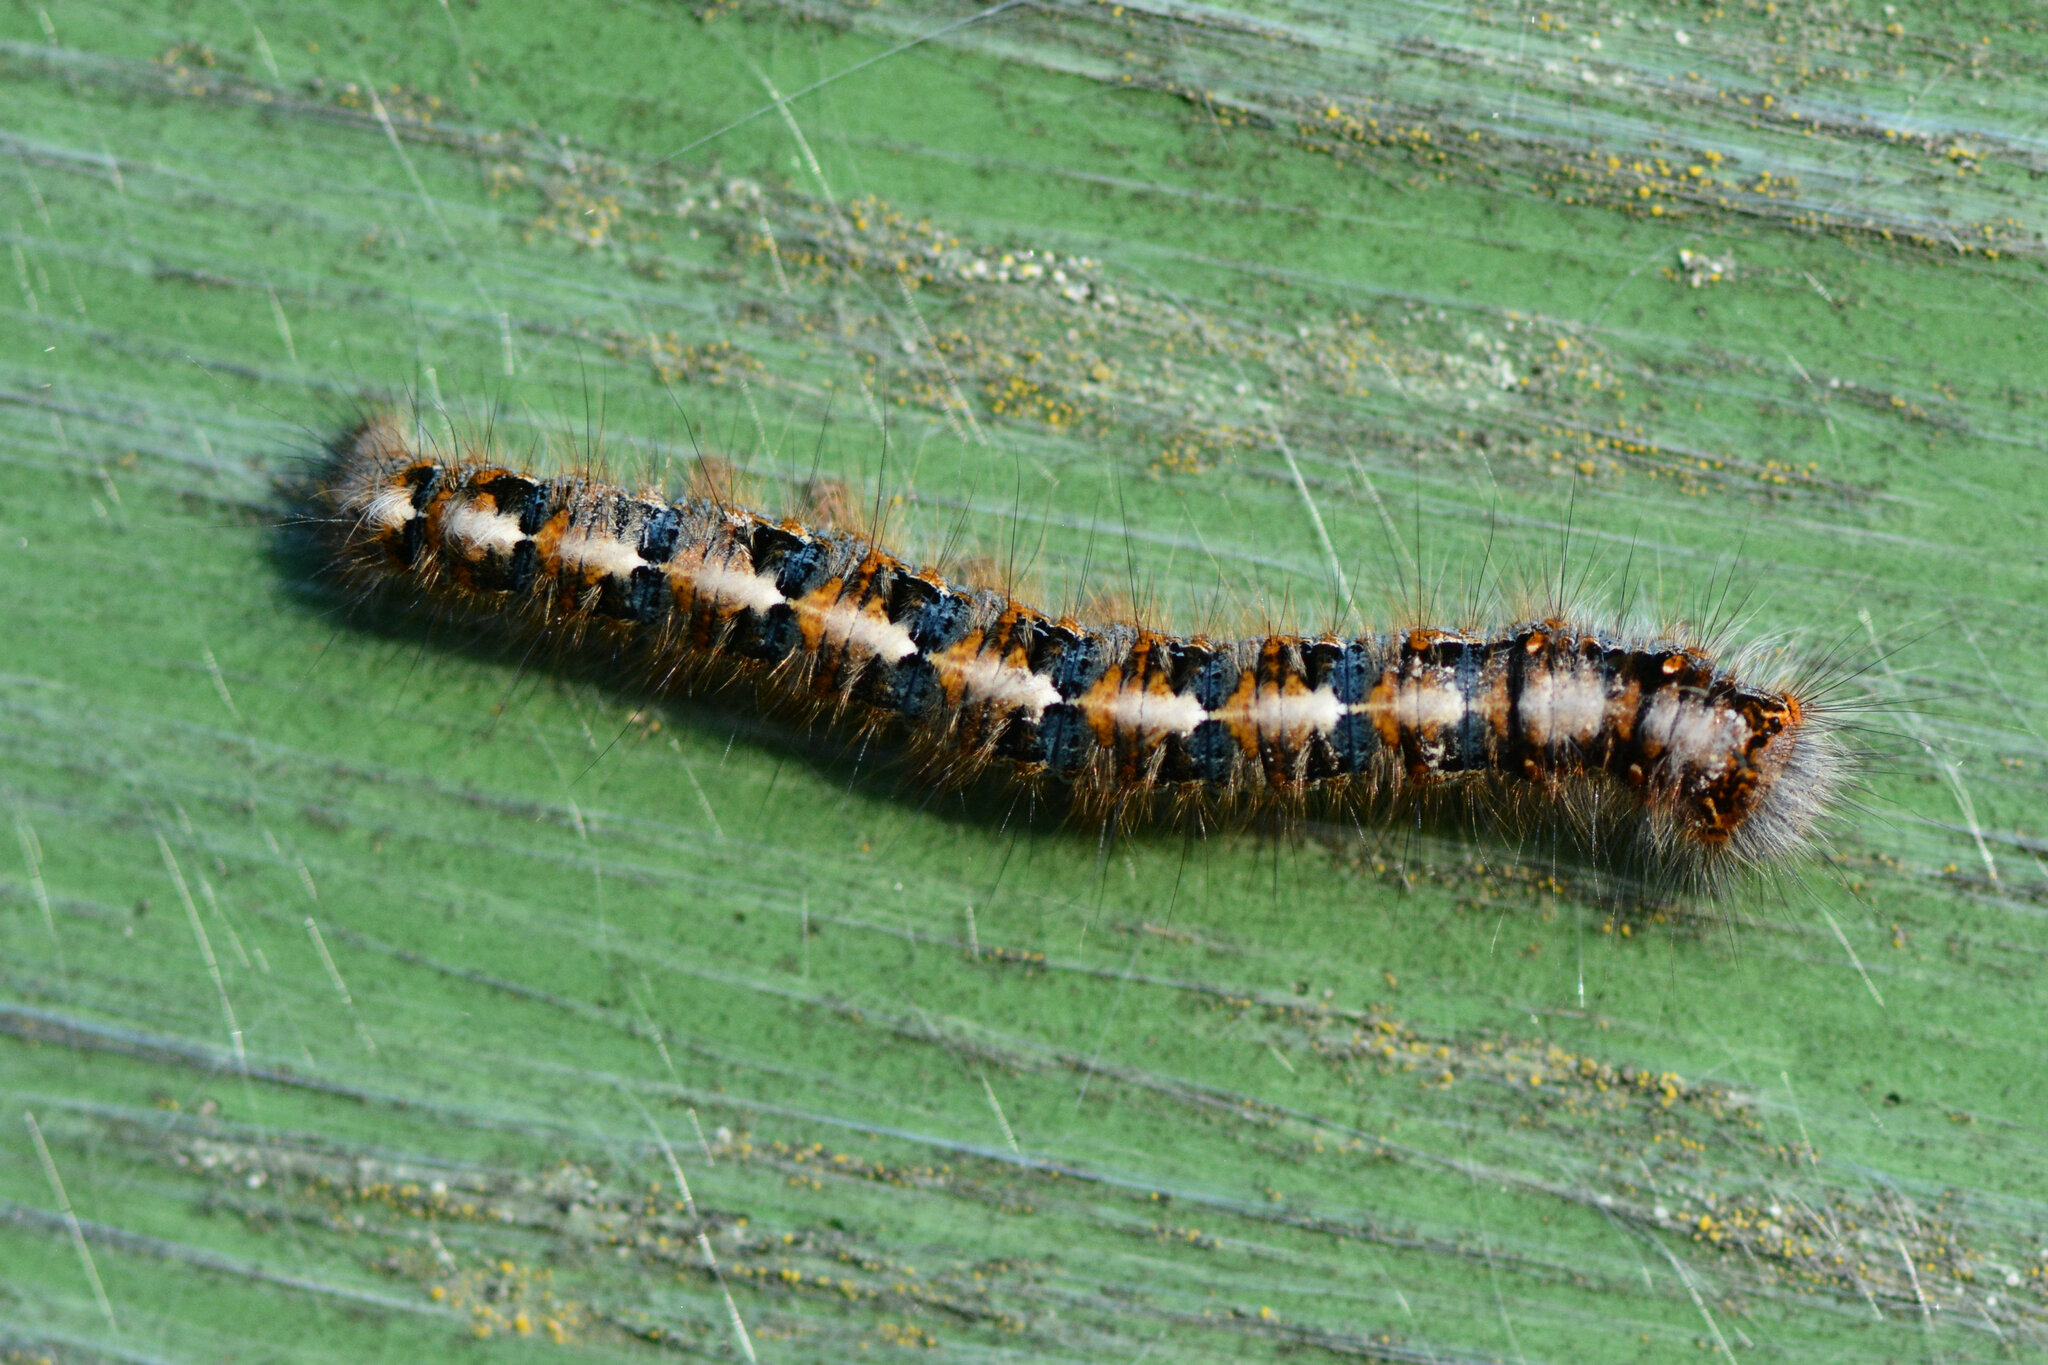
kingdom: Animalia
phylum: Arthropoda
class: Insecta
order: Lepidoptera
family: Lasiocampidae
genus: Lasiocampa
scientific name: Lasiocampa quercus
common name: Oak eggar
